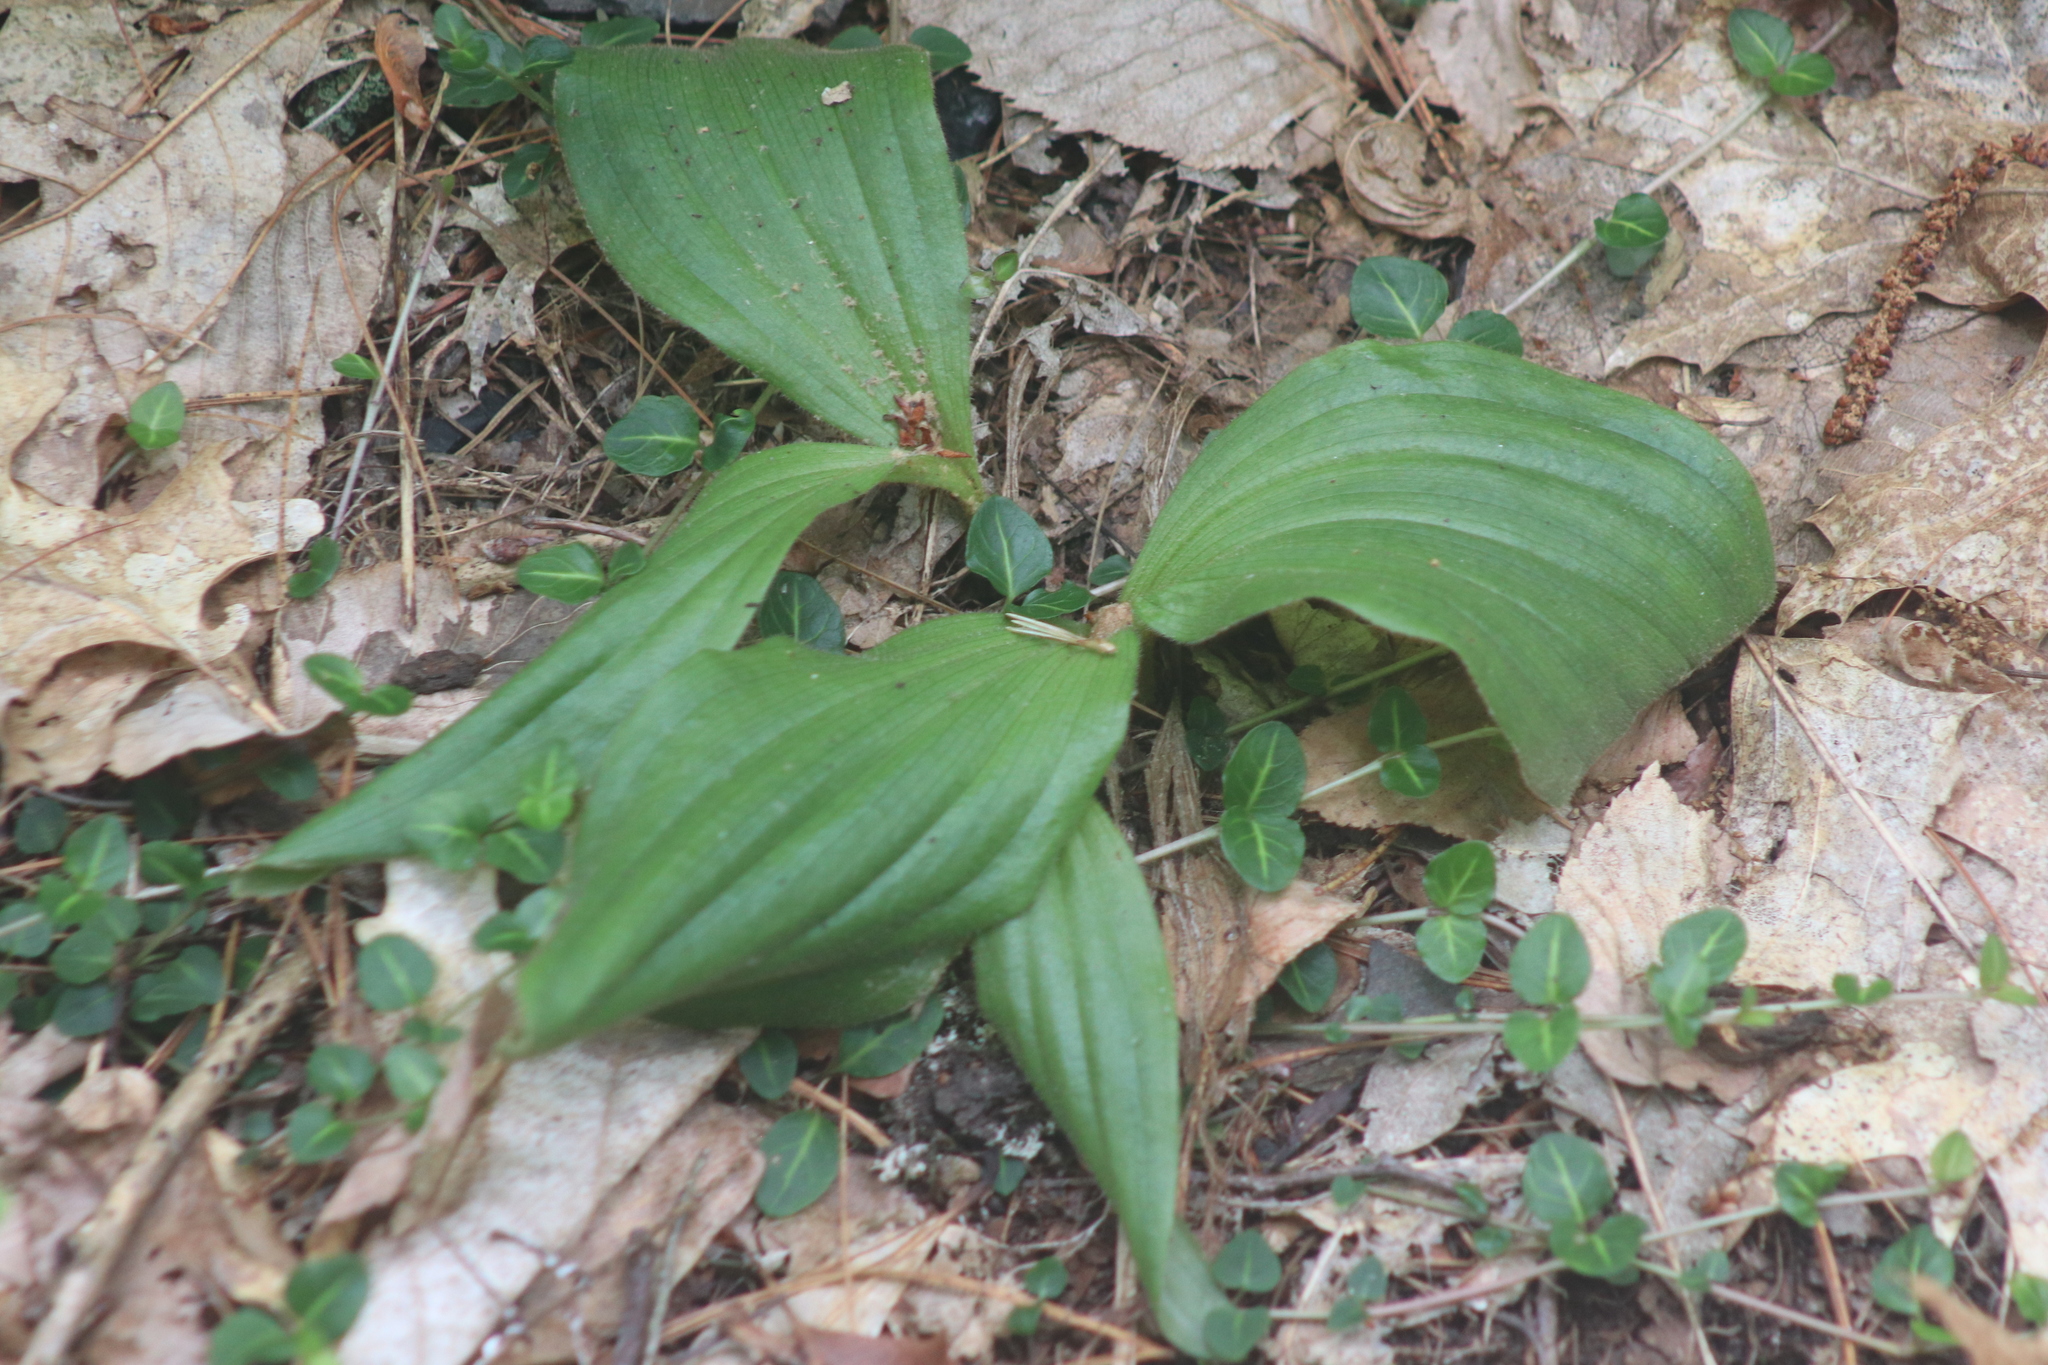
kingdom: Plantae
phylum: Tracheophyta
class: Liliopsida
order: Asparagales
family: Orchidaceae
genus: Cypripedium
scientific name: Cypripedium acaule
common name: Pink lady's-slipper
